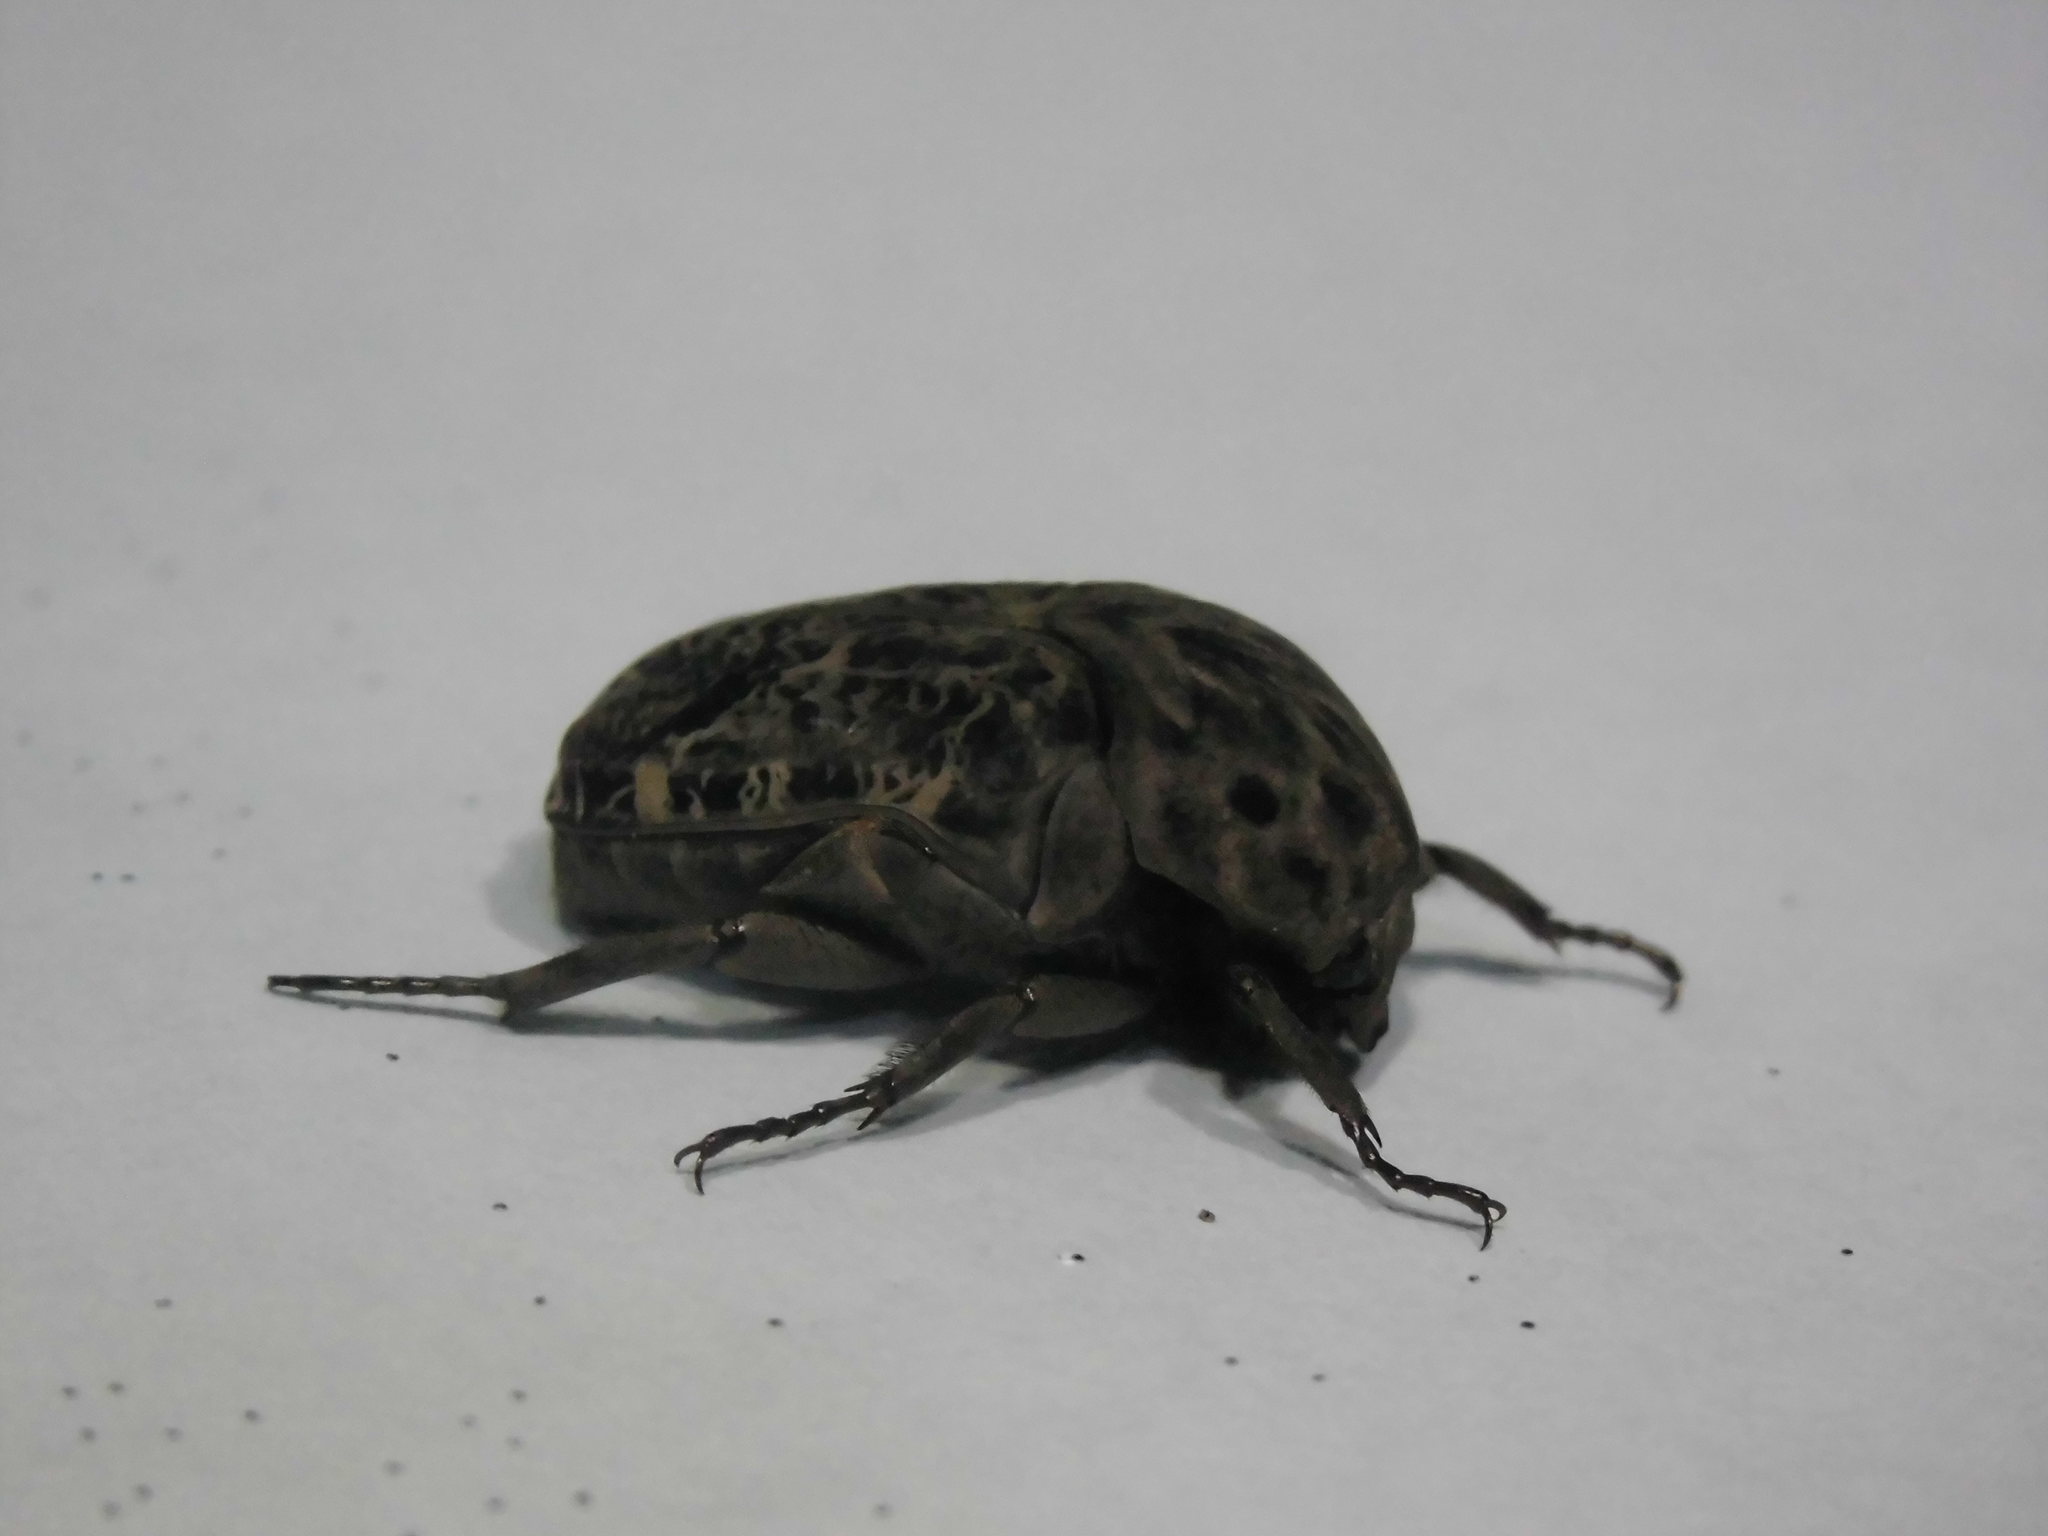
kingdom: Animalia
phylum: Arthropoda
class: Insecta
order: Coleoptera
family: Scarabaeidae
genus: Gymnetis
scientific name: Gymnetis chalcipes
